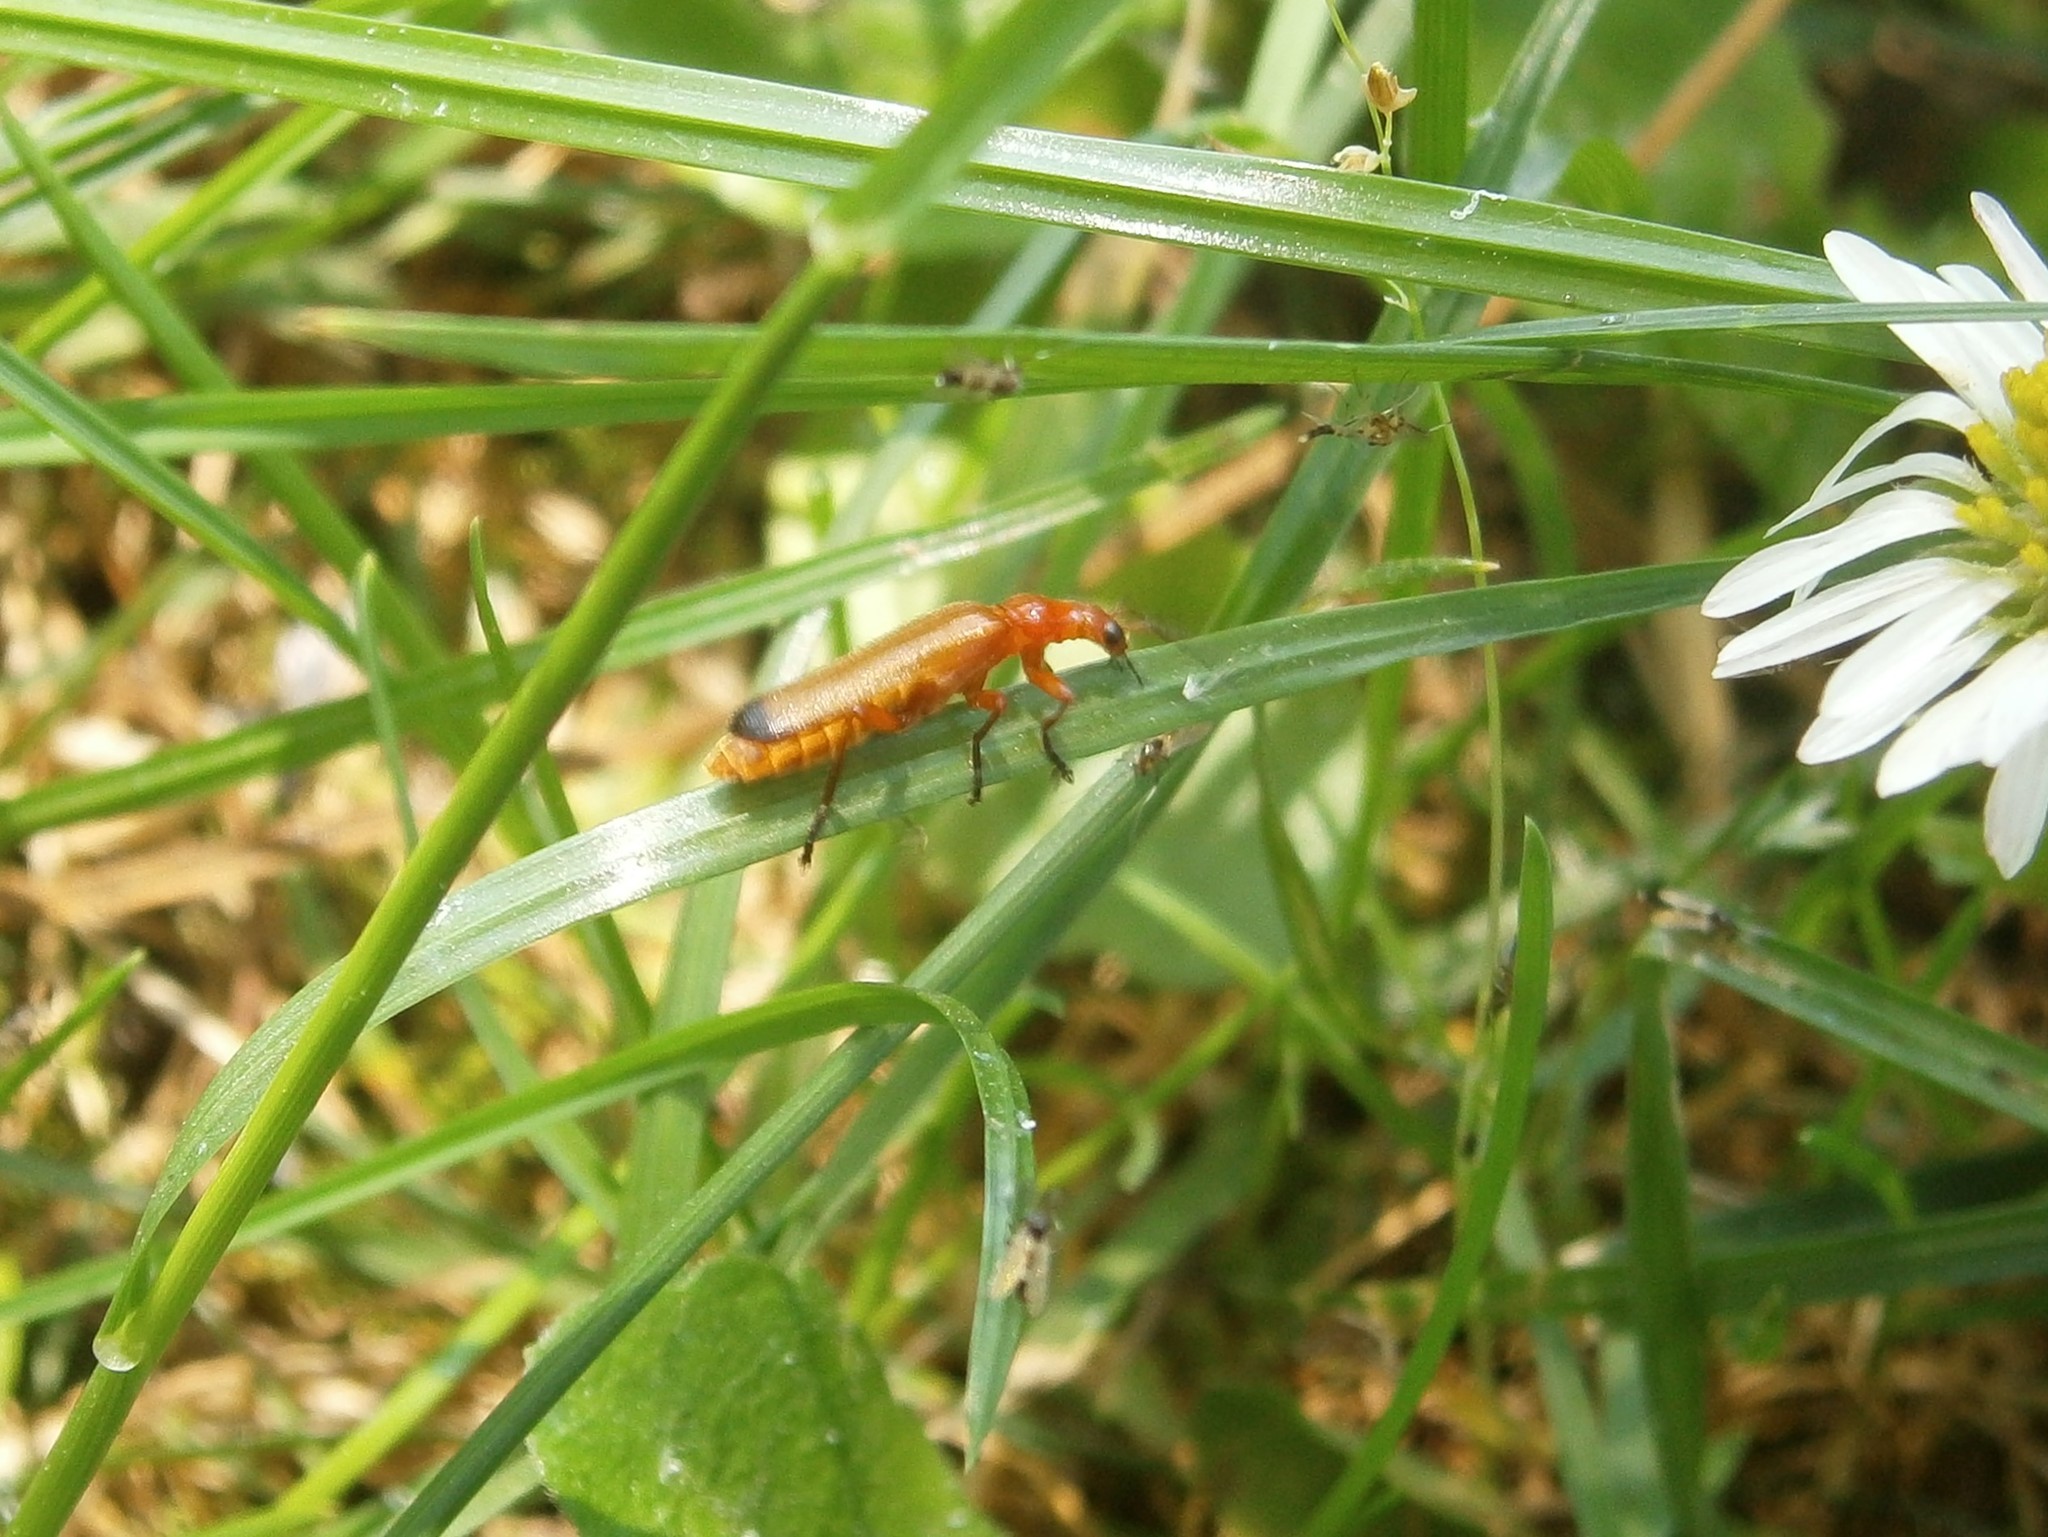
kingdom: Animalia
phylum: Arthropoda
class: Insecta
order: Coleoptera
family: Cantharidae
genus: Rhagonycha
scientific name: Rhagonycha fulva
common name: Common red soldier beetle
